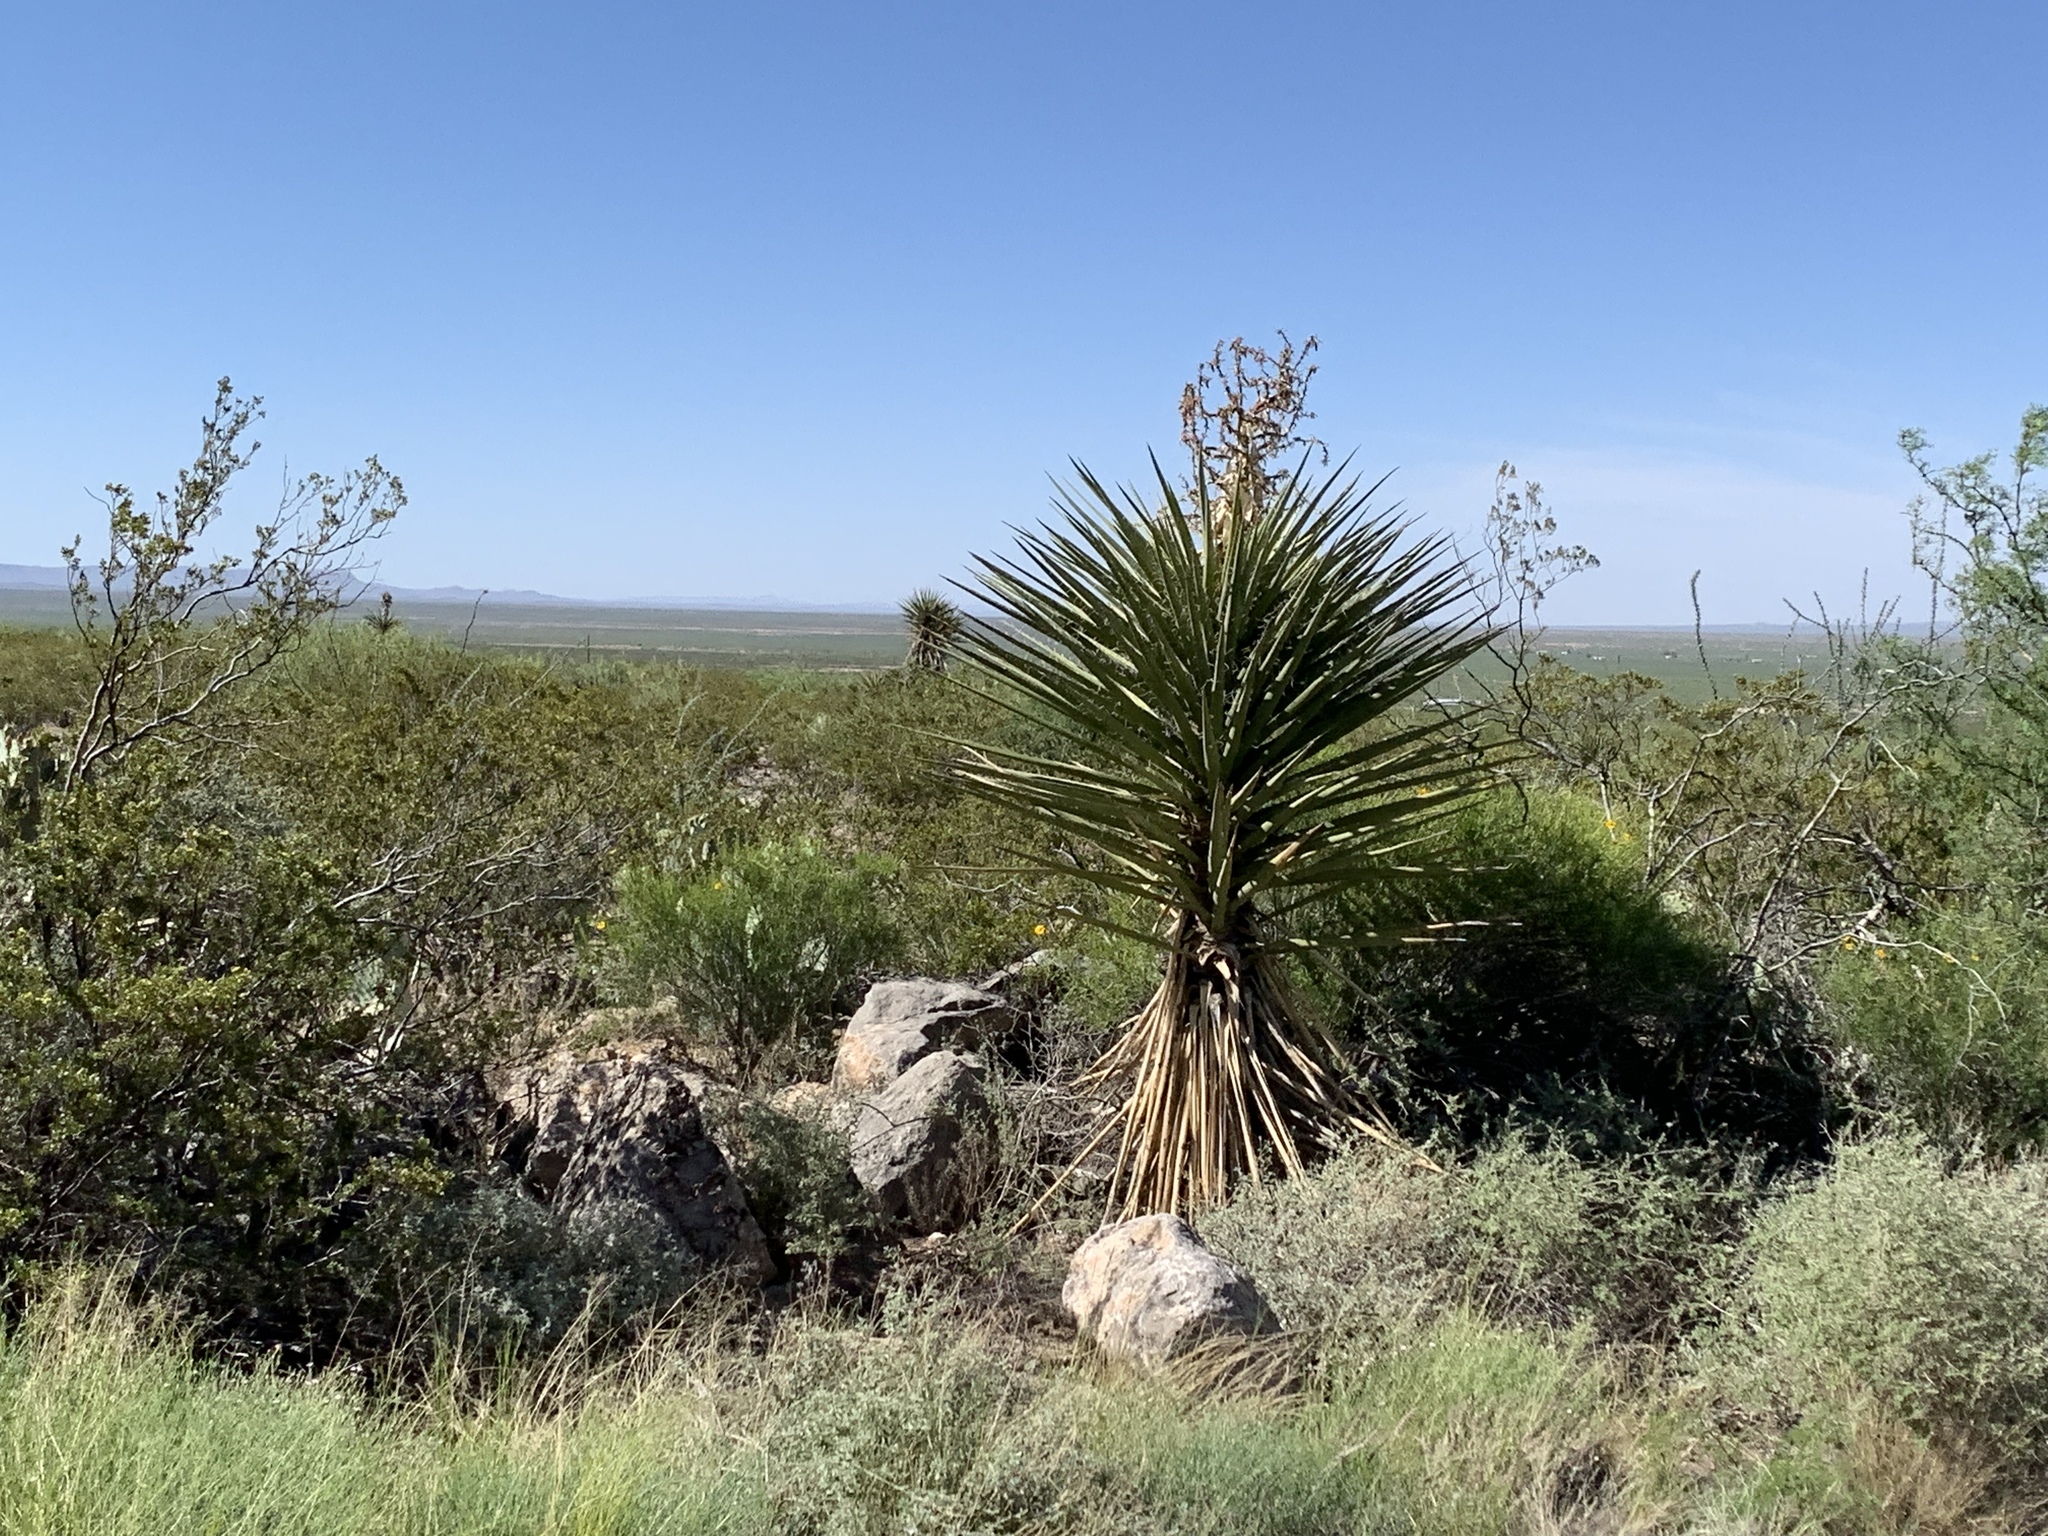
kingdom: Plantae
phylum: Tracheophyta
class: Liliopsida
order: Asparagales
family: Asparagaceae
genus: Yucca
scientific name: Yucca treculiana
